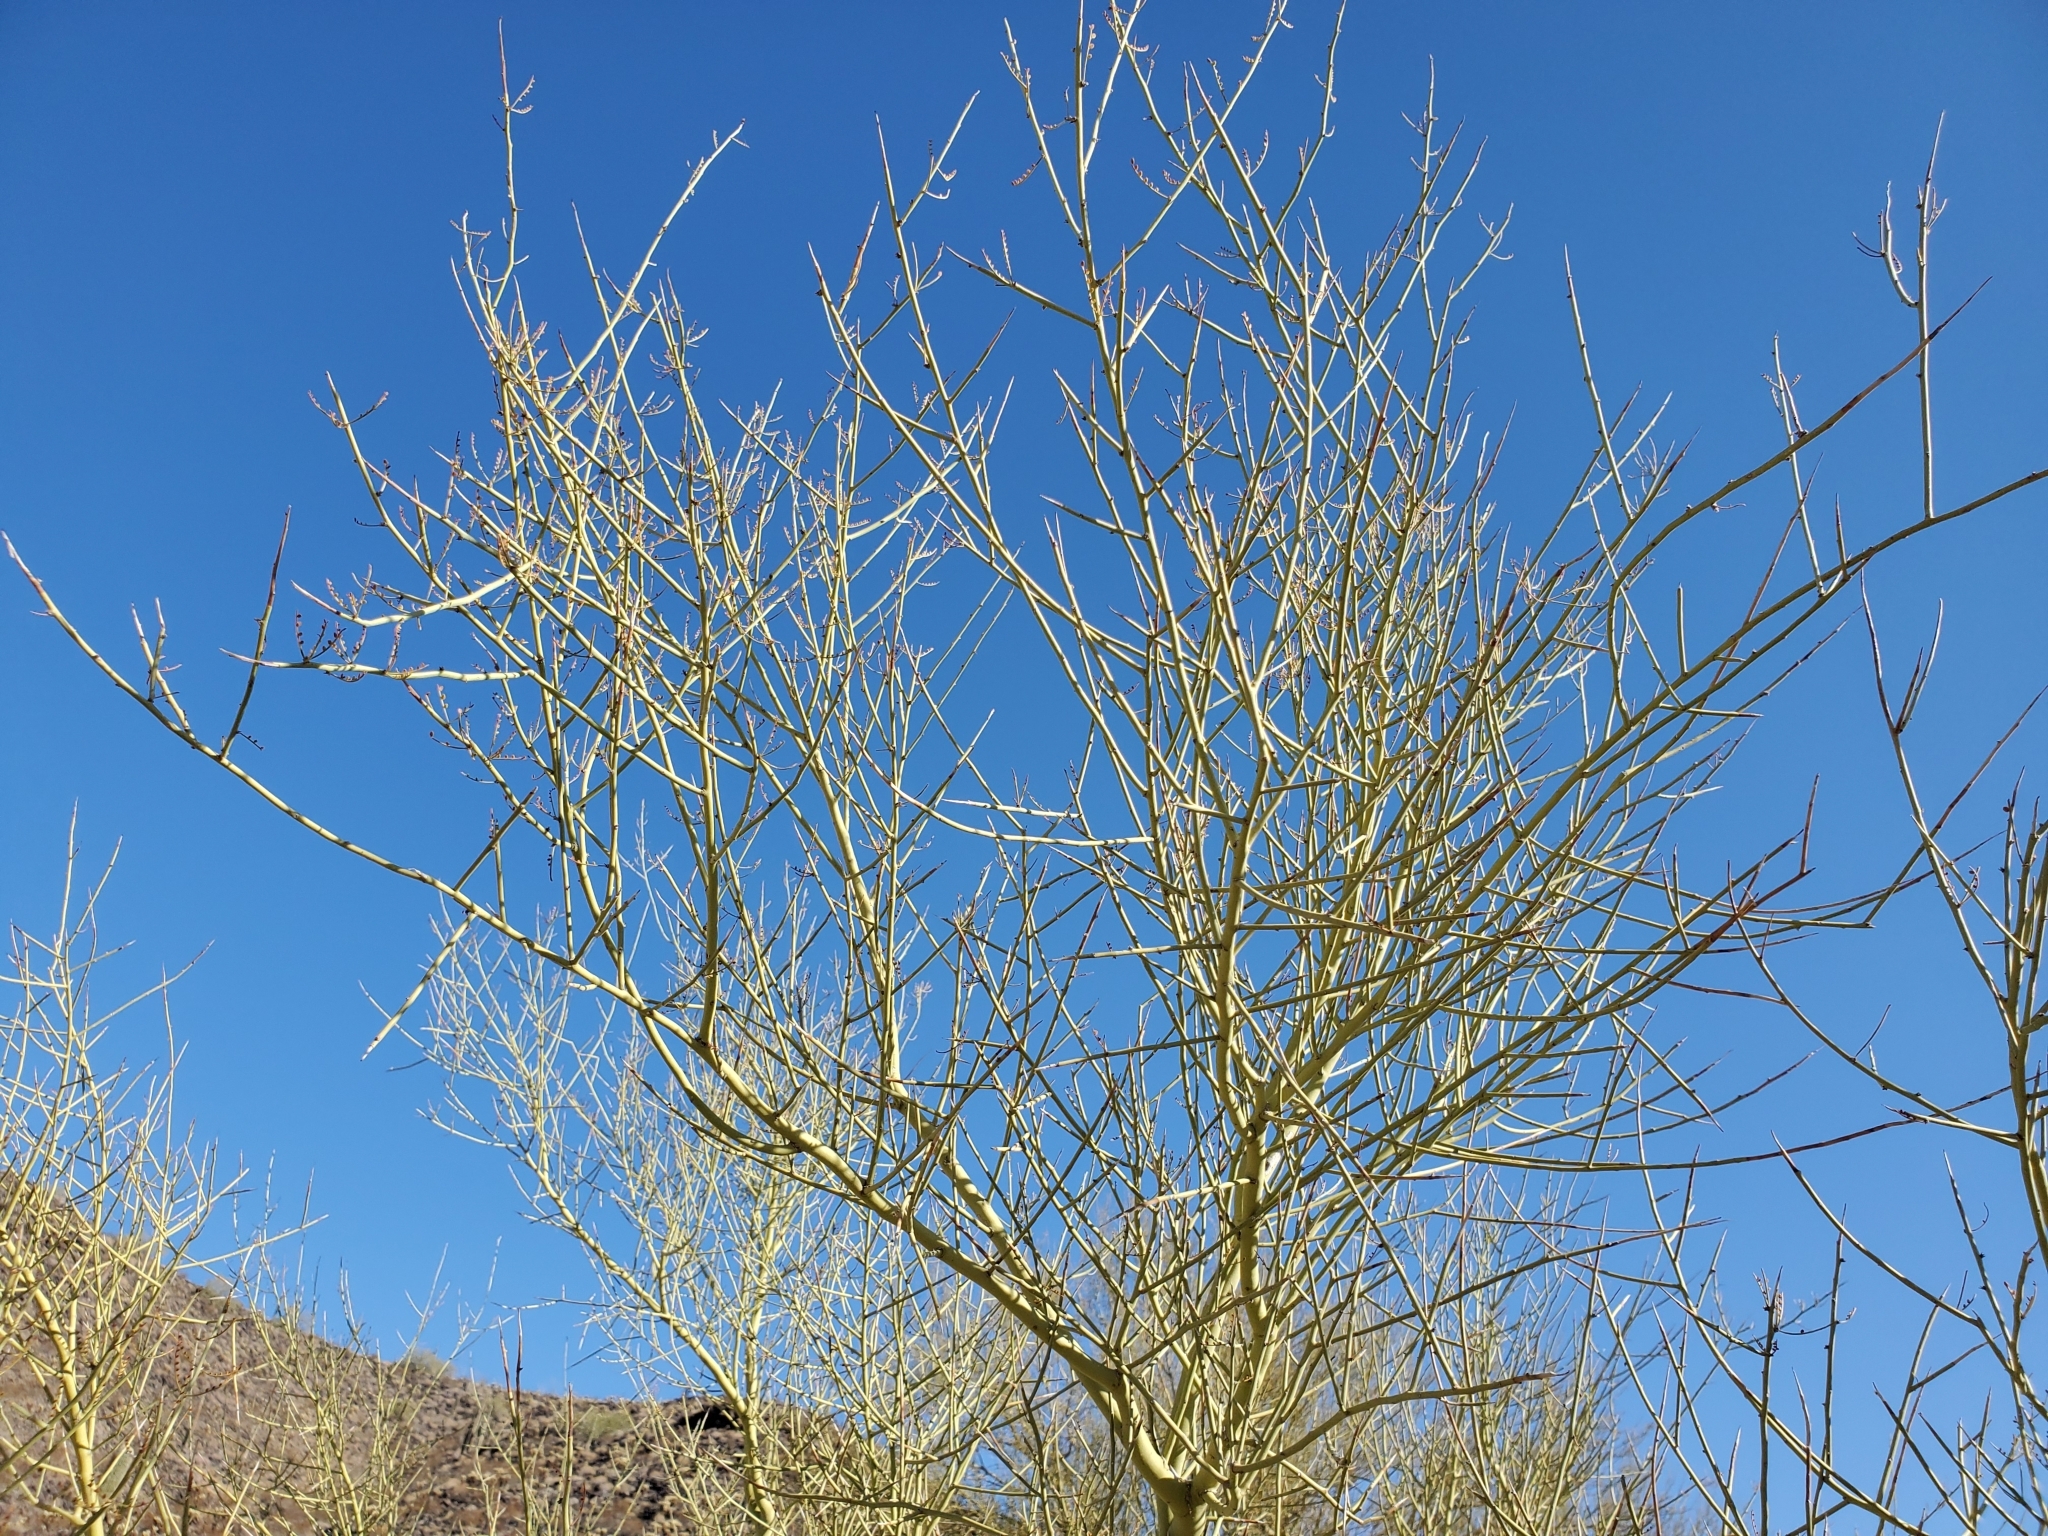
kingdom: Plantae
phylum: Tracheophyta
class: Magnoliopsida
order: Fabales
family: Fabaceae
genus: Parkinsonia
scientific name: Parkinsonia microphylla
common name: Yellow paloverde
